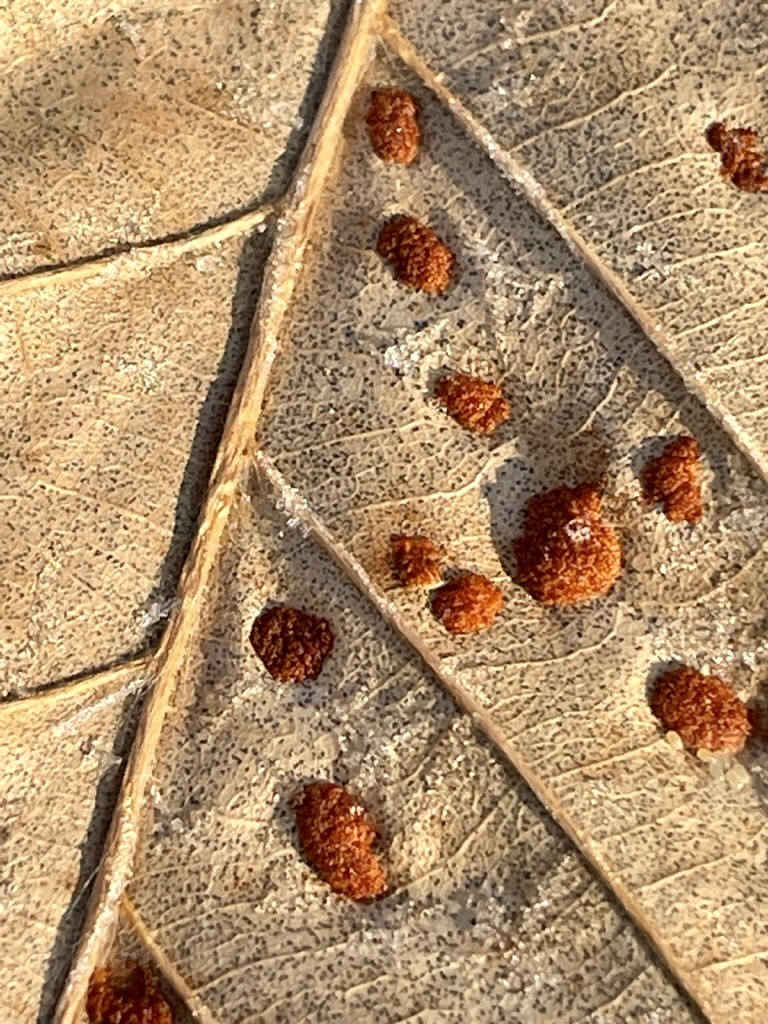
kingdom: Animalia
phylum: Arthropoda
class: Arachnida
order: Trombidiformes
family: Eriophyidae
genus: Acalitus
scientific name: Acalitus
